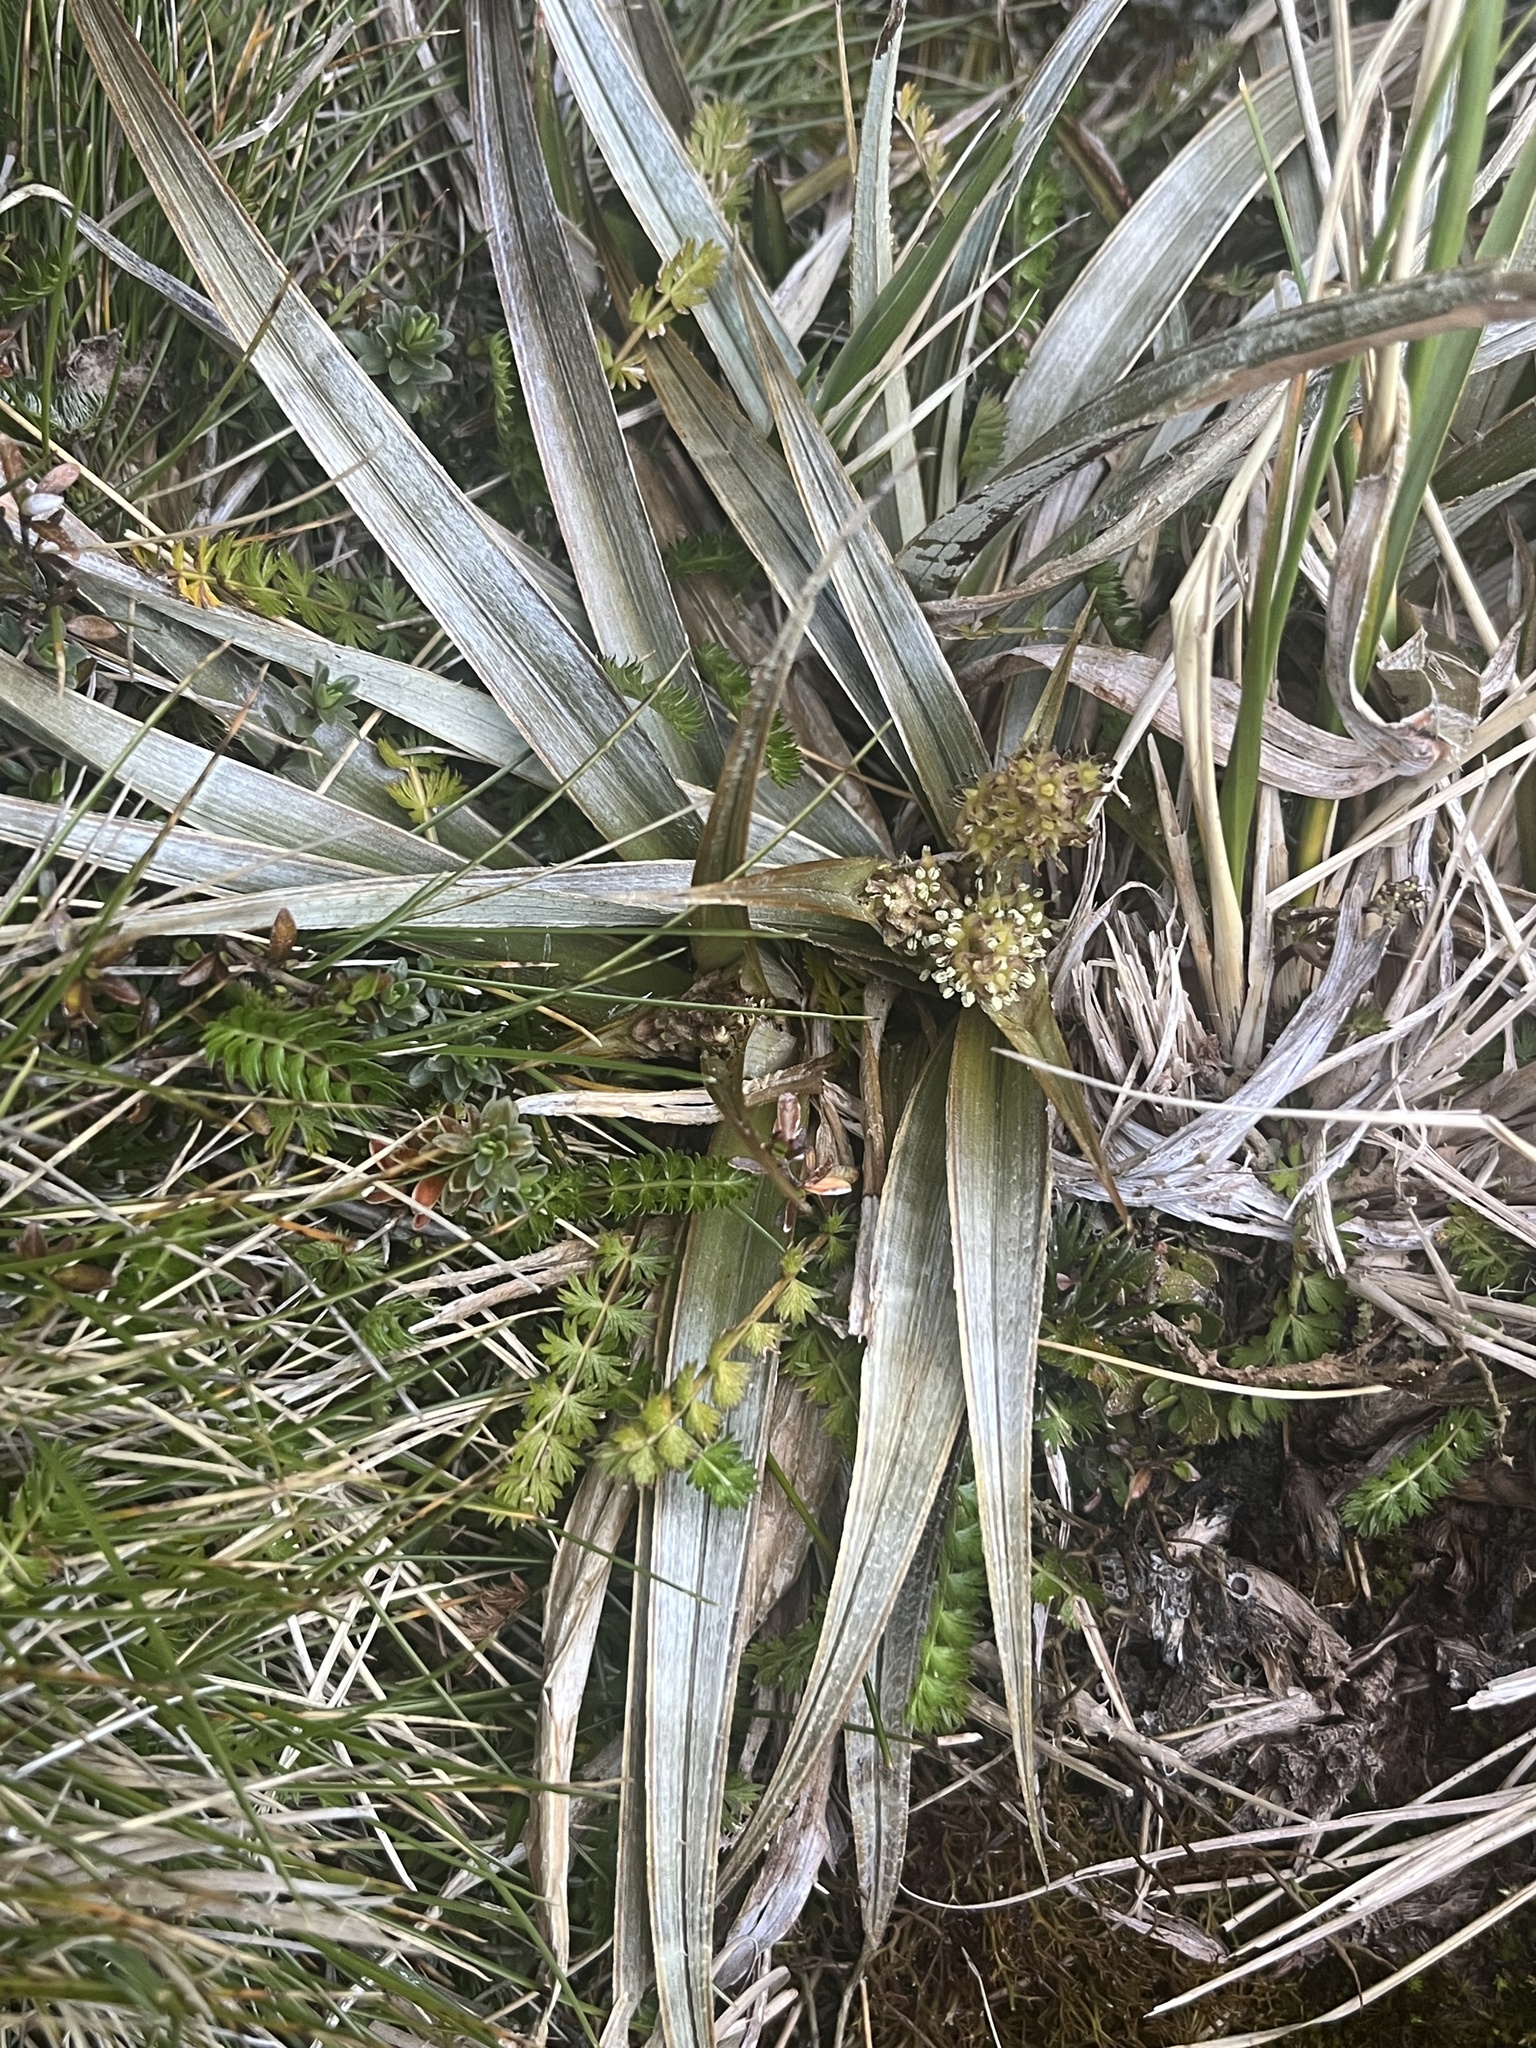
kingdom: Plantae
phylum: Tracheophyta
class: Liliopsida
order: Asparagales
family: Asteliaceae
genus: Astelia
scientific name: Astelia nervosa
